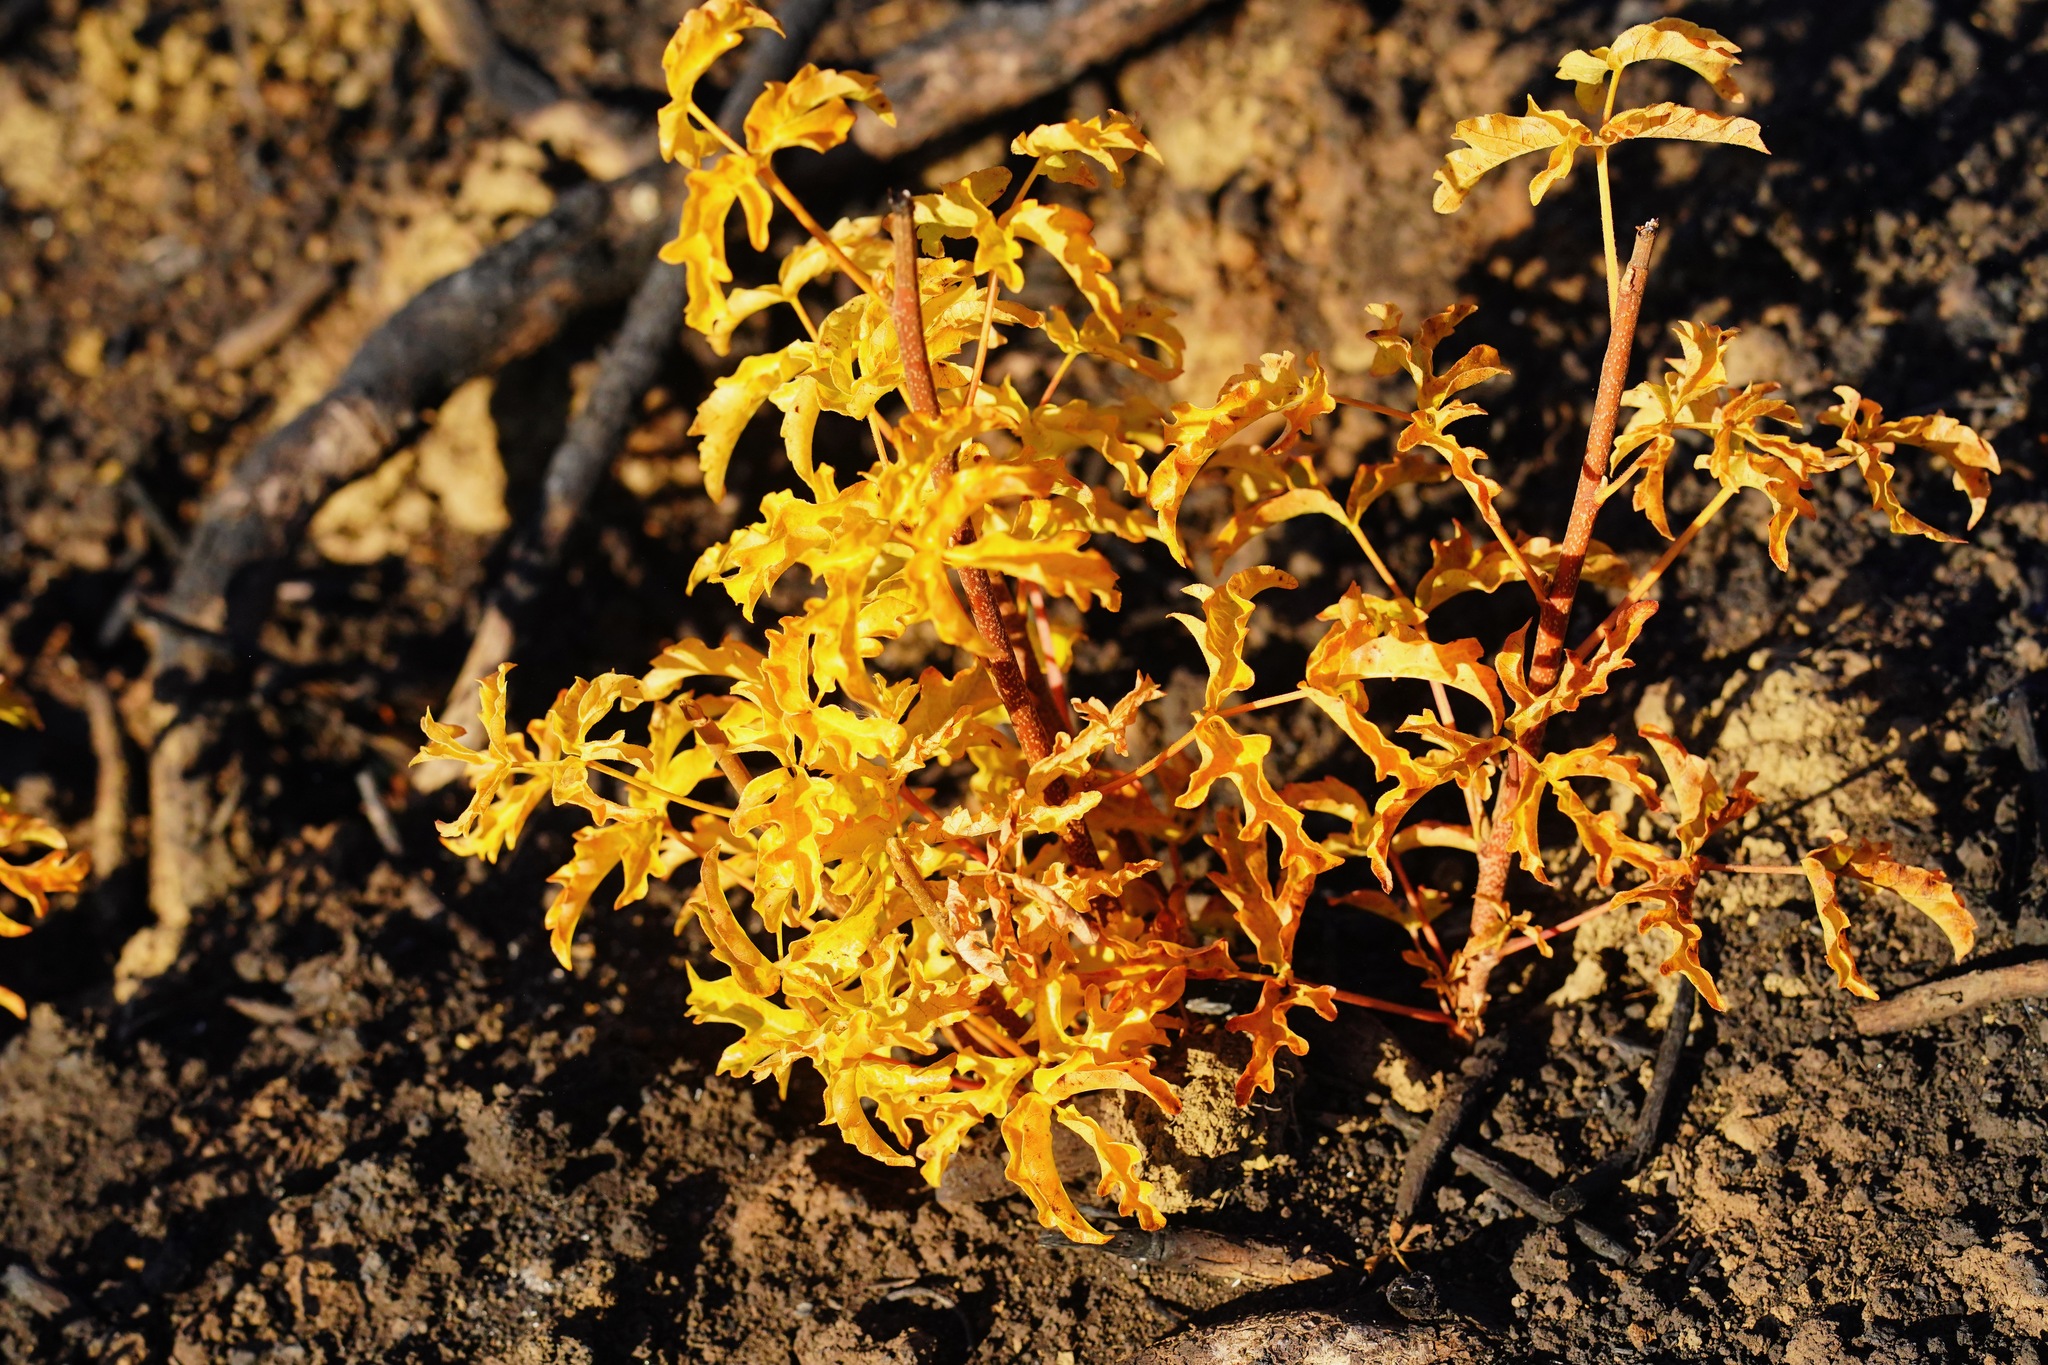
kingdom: Plantae
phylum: Tracheophyta
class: Magnoliopsida
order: Sapindales
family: Anacardiaceae
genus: Toxicodendron
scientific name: Toxicodendron diversilobum
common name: Pacific poison-oak
